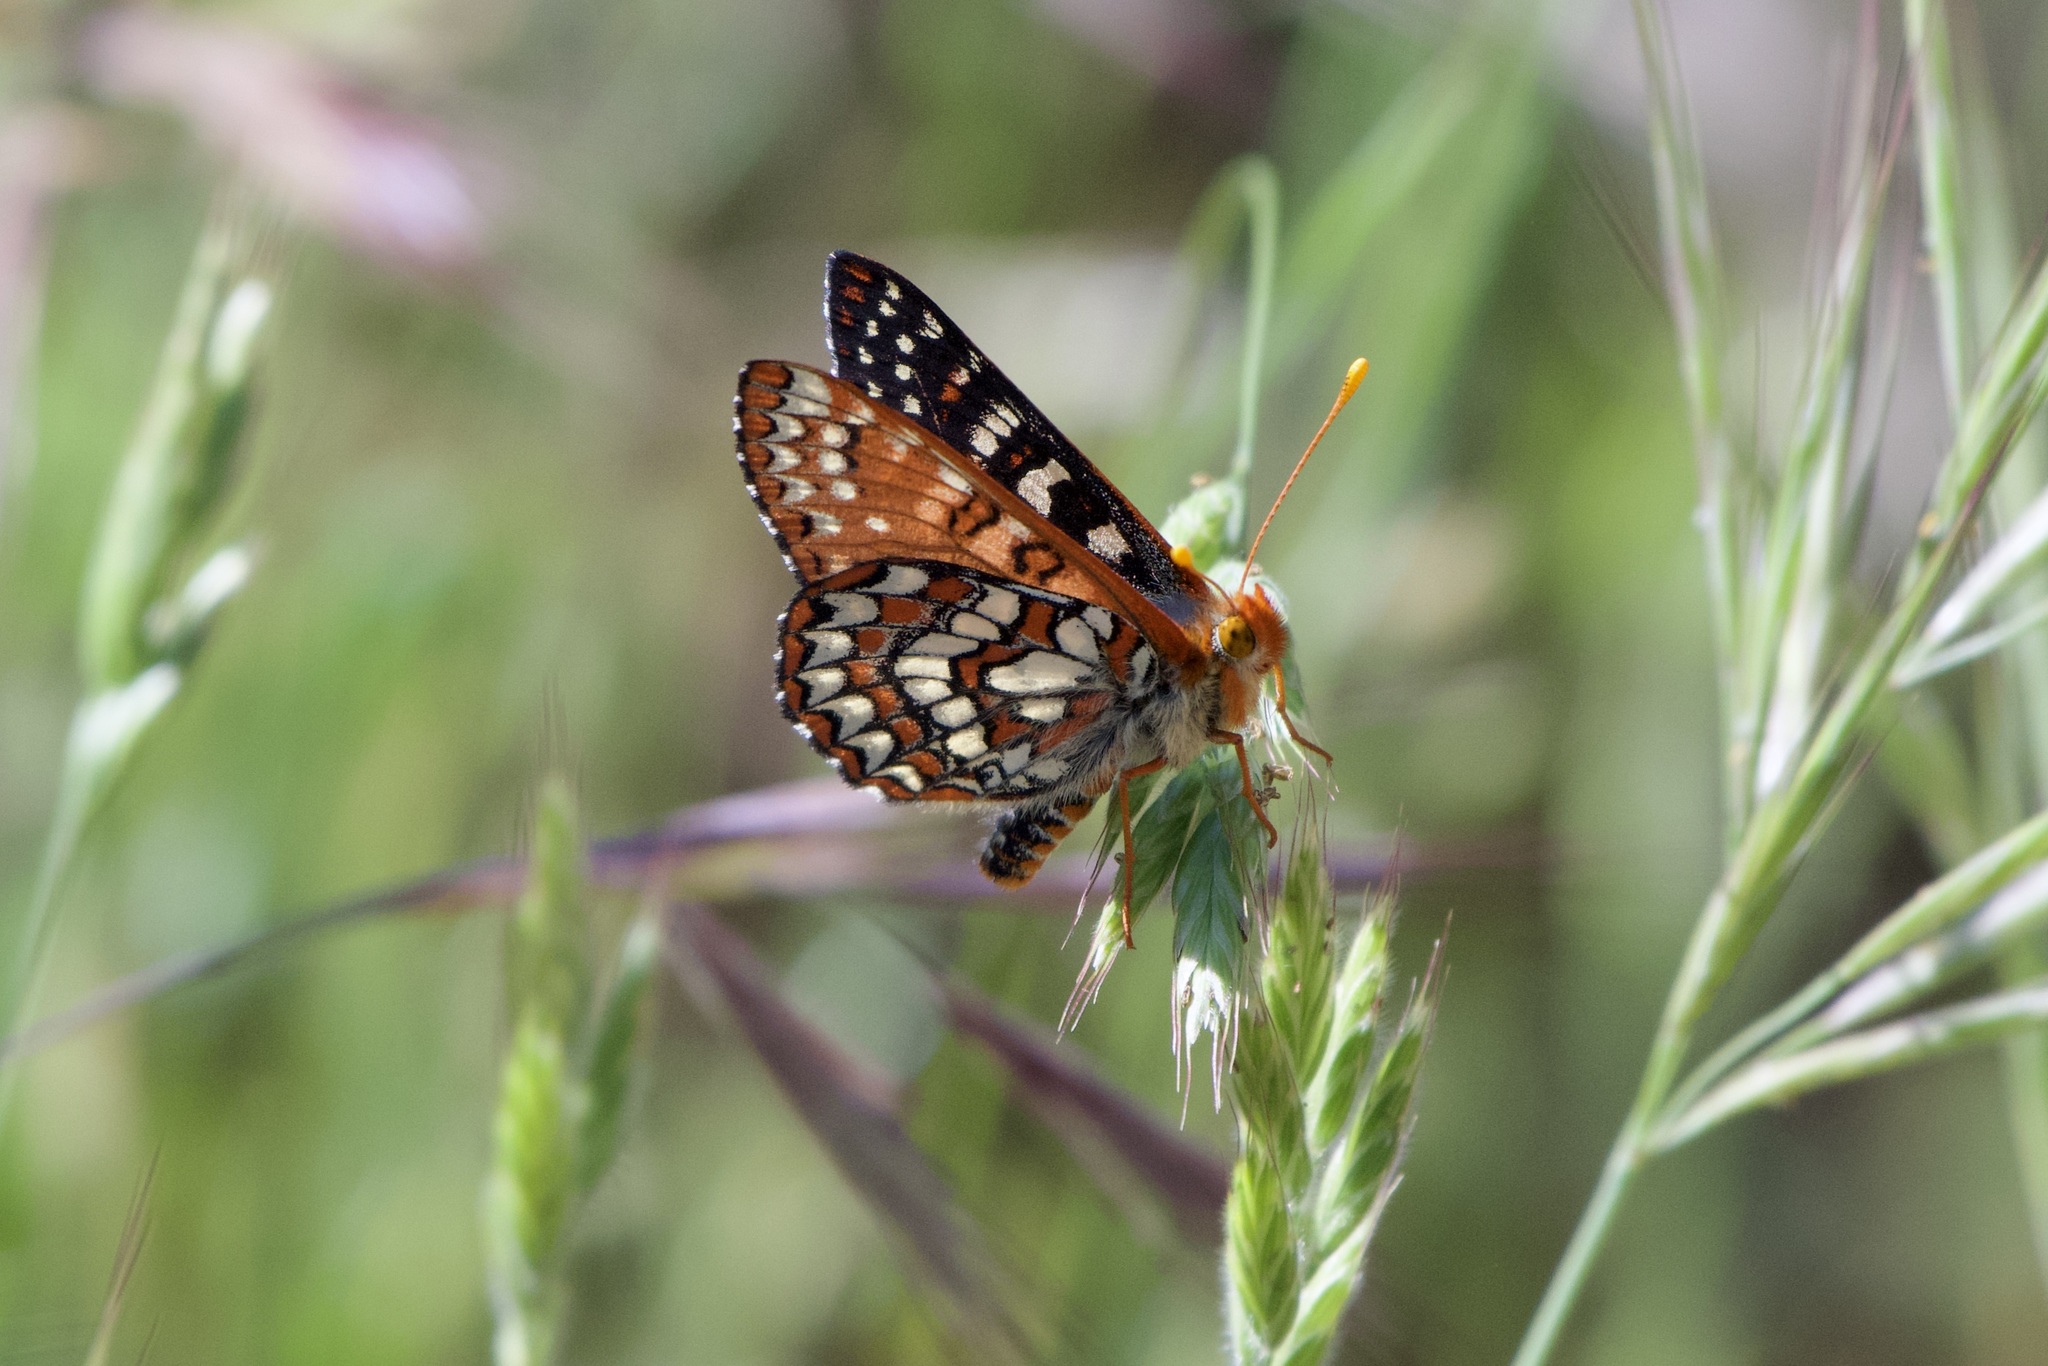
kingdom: Animalia
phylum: Arthropoda
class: Insecta
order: Lepidoptera
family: Nymphalidae
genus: Occidryas
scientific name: Occidryas chalcedona
